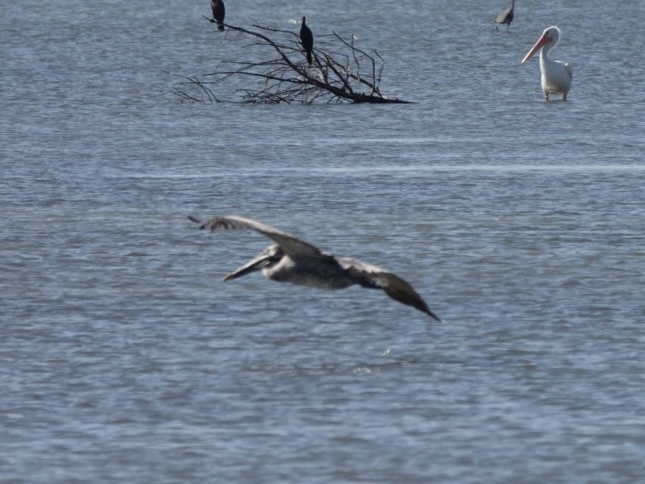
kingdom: Animalia
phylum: Chordata
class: Aves
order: Pelecaniformes
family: Pelecanidae
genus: Pelecanus
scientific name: Pelecanus occidentalis
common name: Brown pelican
